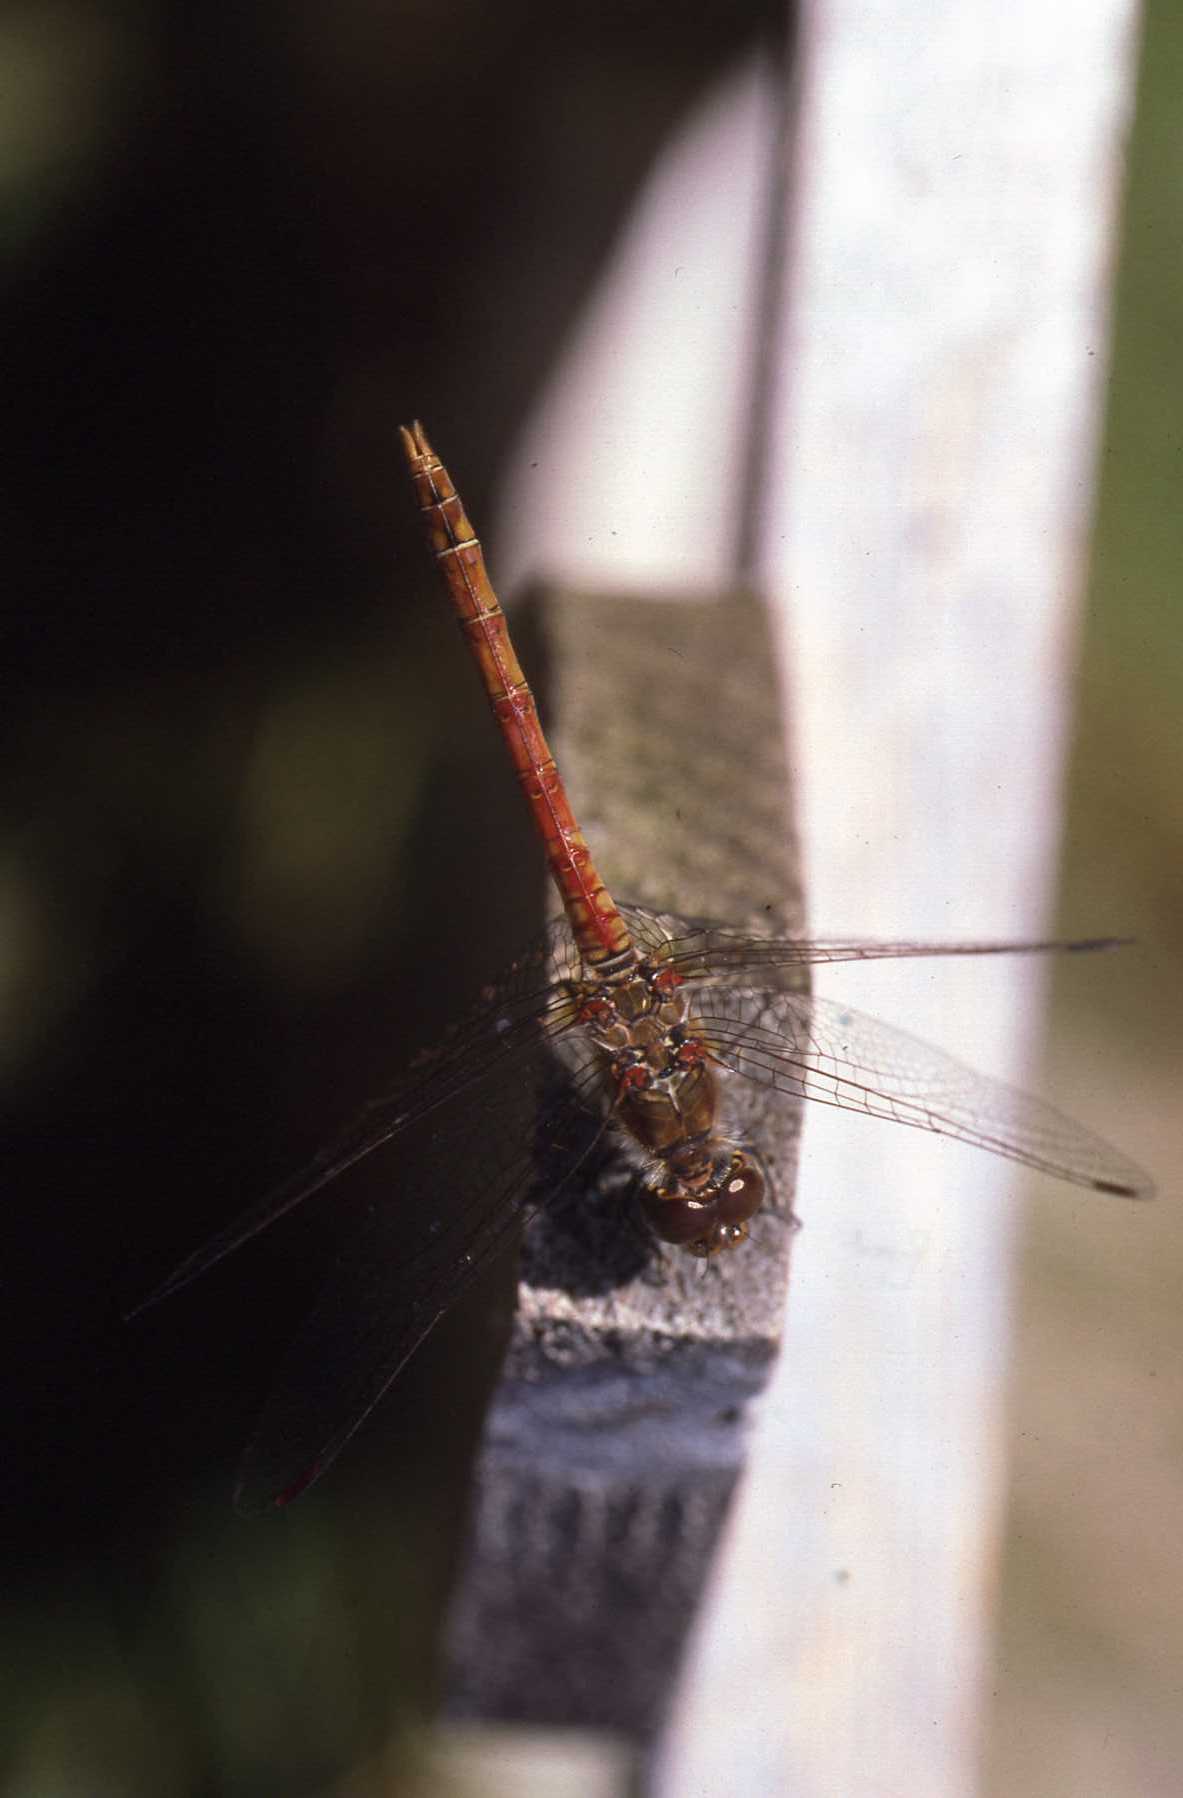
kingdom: Animalia
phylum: Arthropoda
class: Insecta
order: Odonata
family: Libellulidae
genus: Sympetrum
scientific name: Sympetrum striolatum
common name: Common darter
